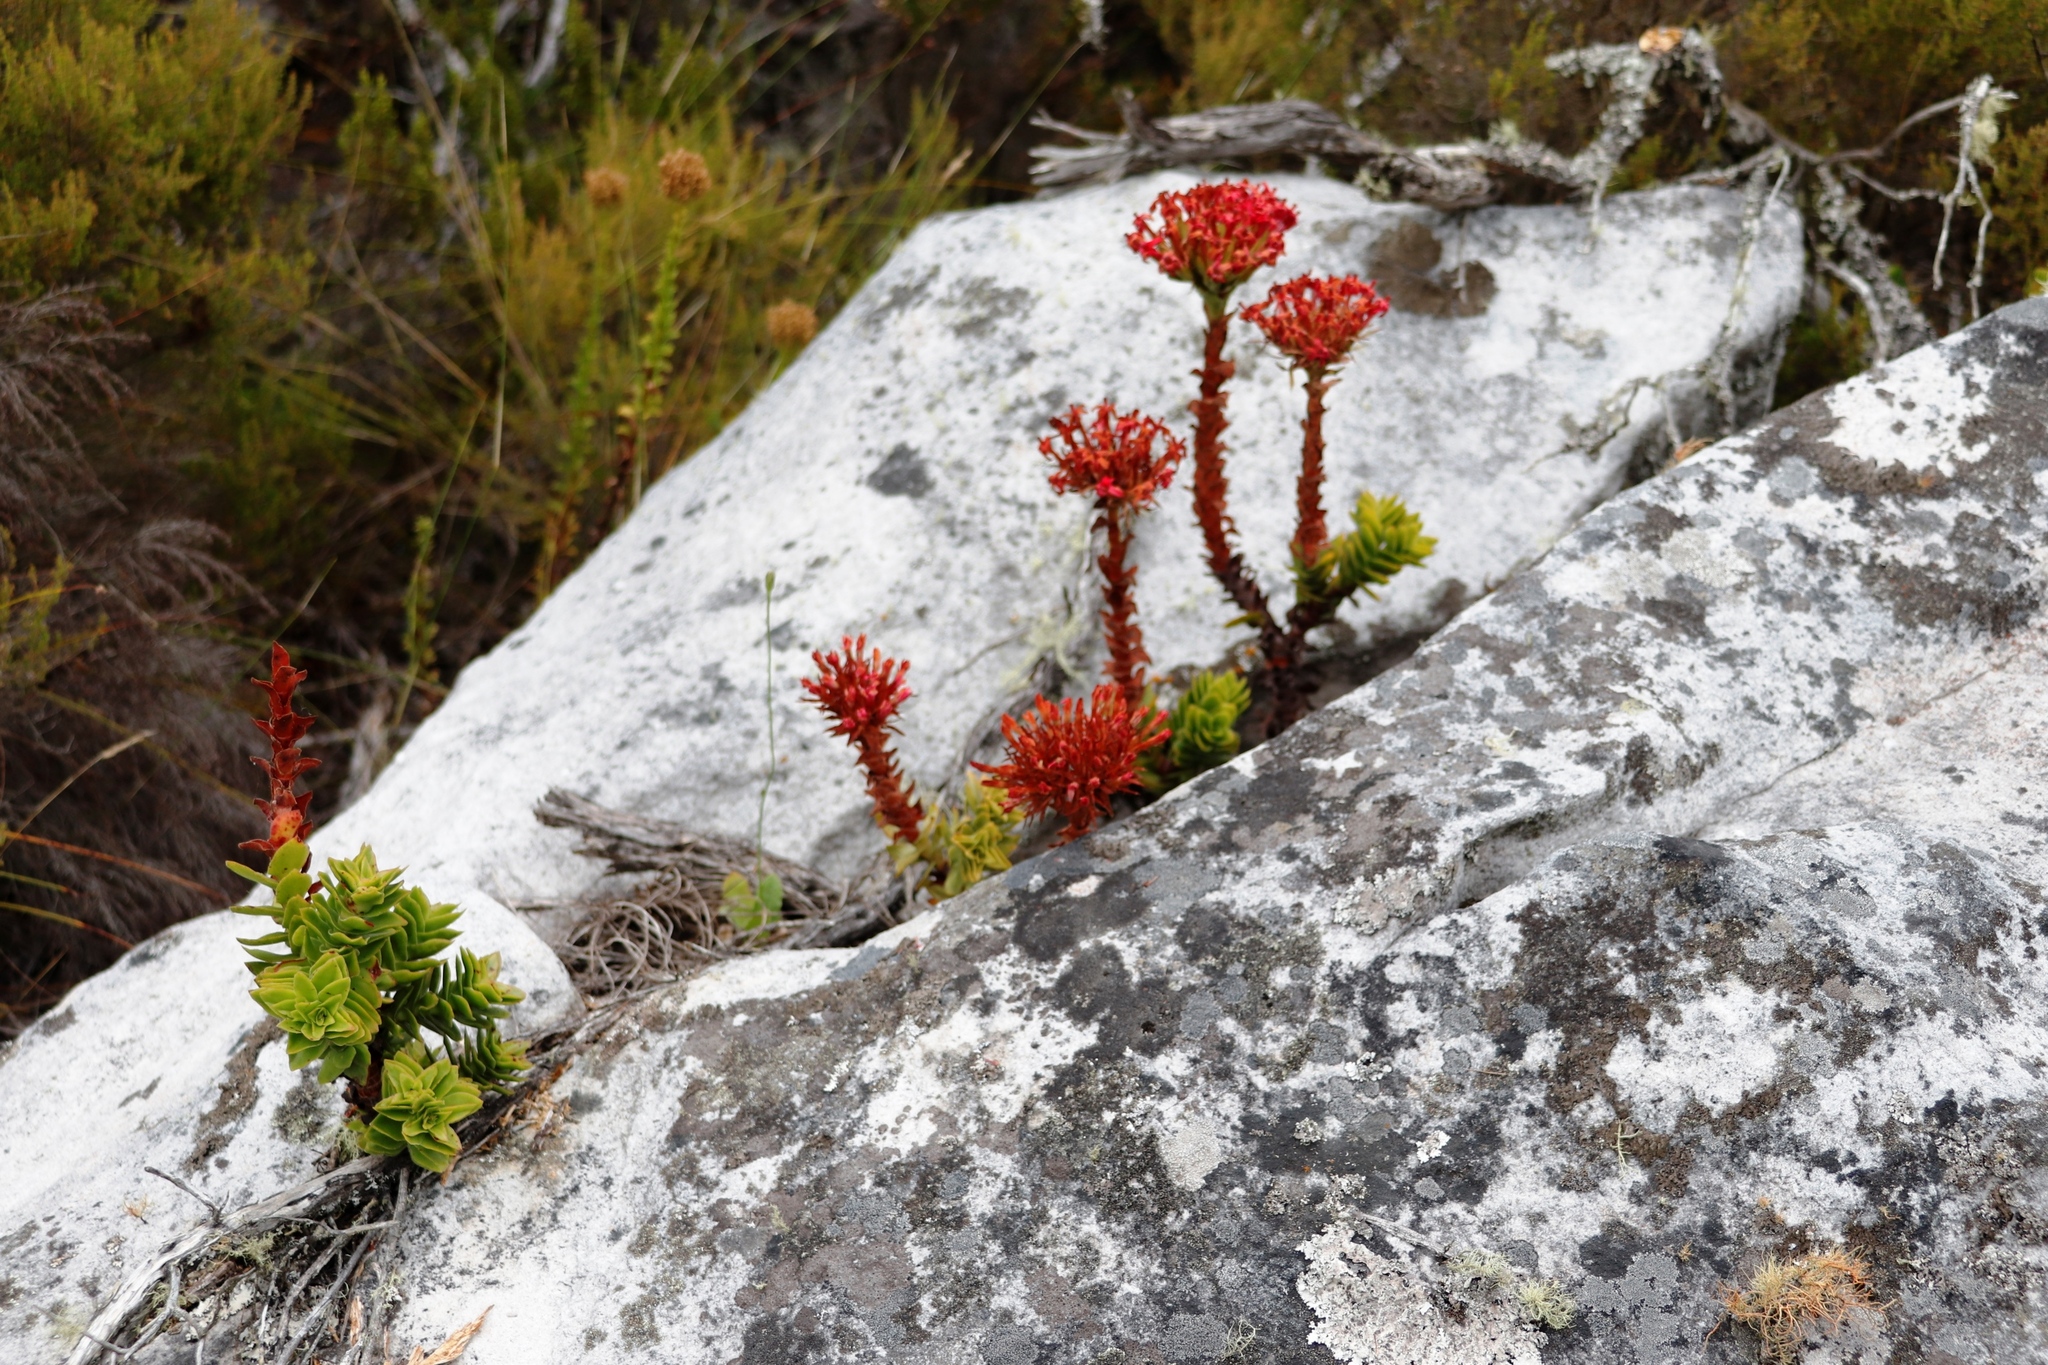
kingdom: Plantae
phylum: Tracheophyta
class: Magnoliopsida
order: Saxifragales
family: Crassulaceae
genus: Crassula
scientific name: Crassula coccinea
